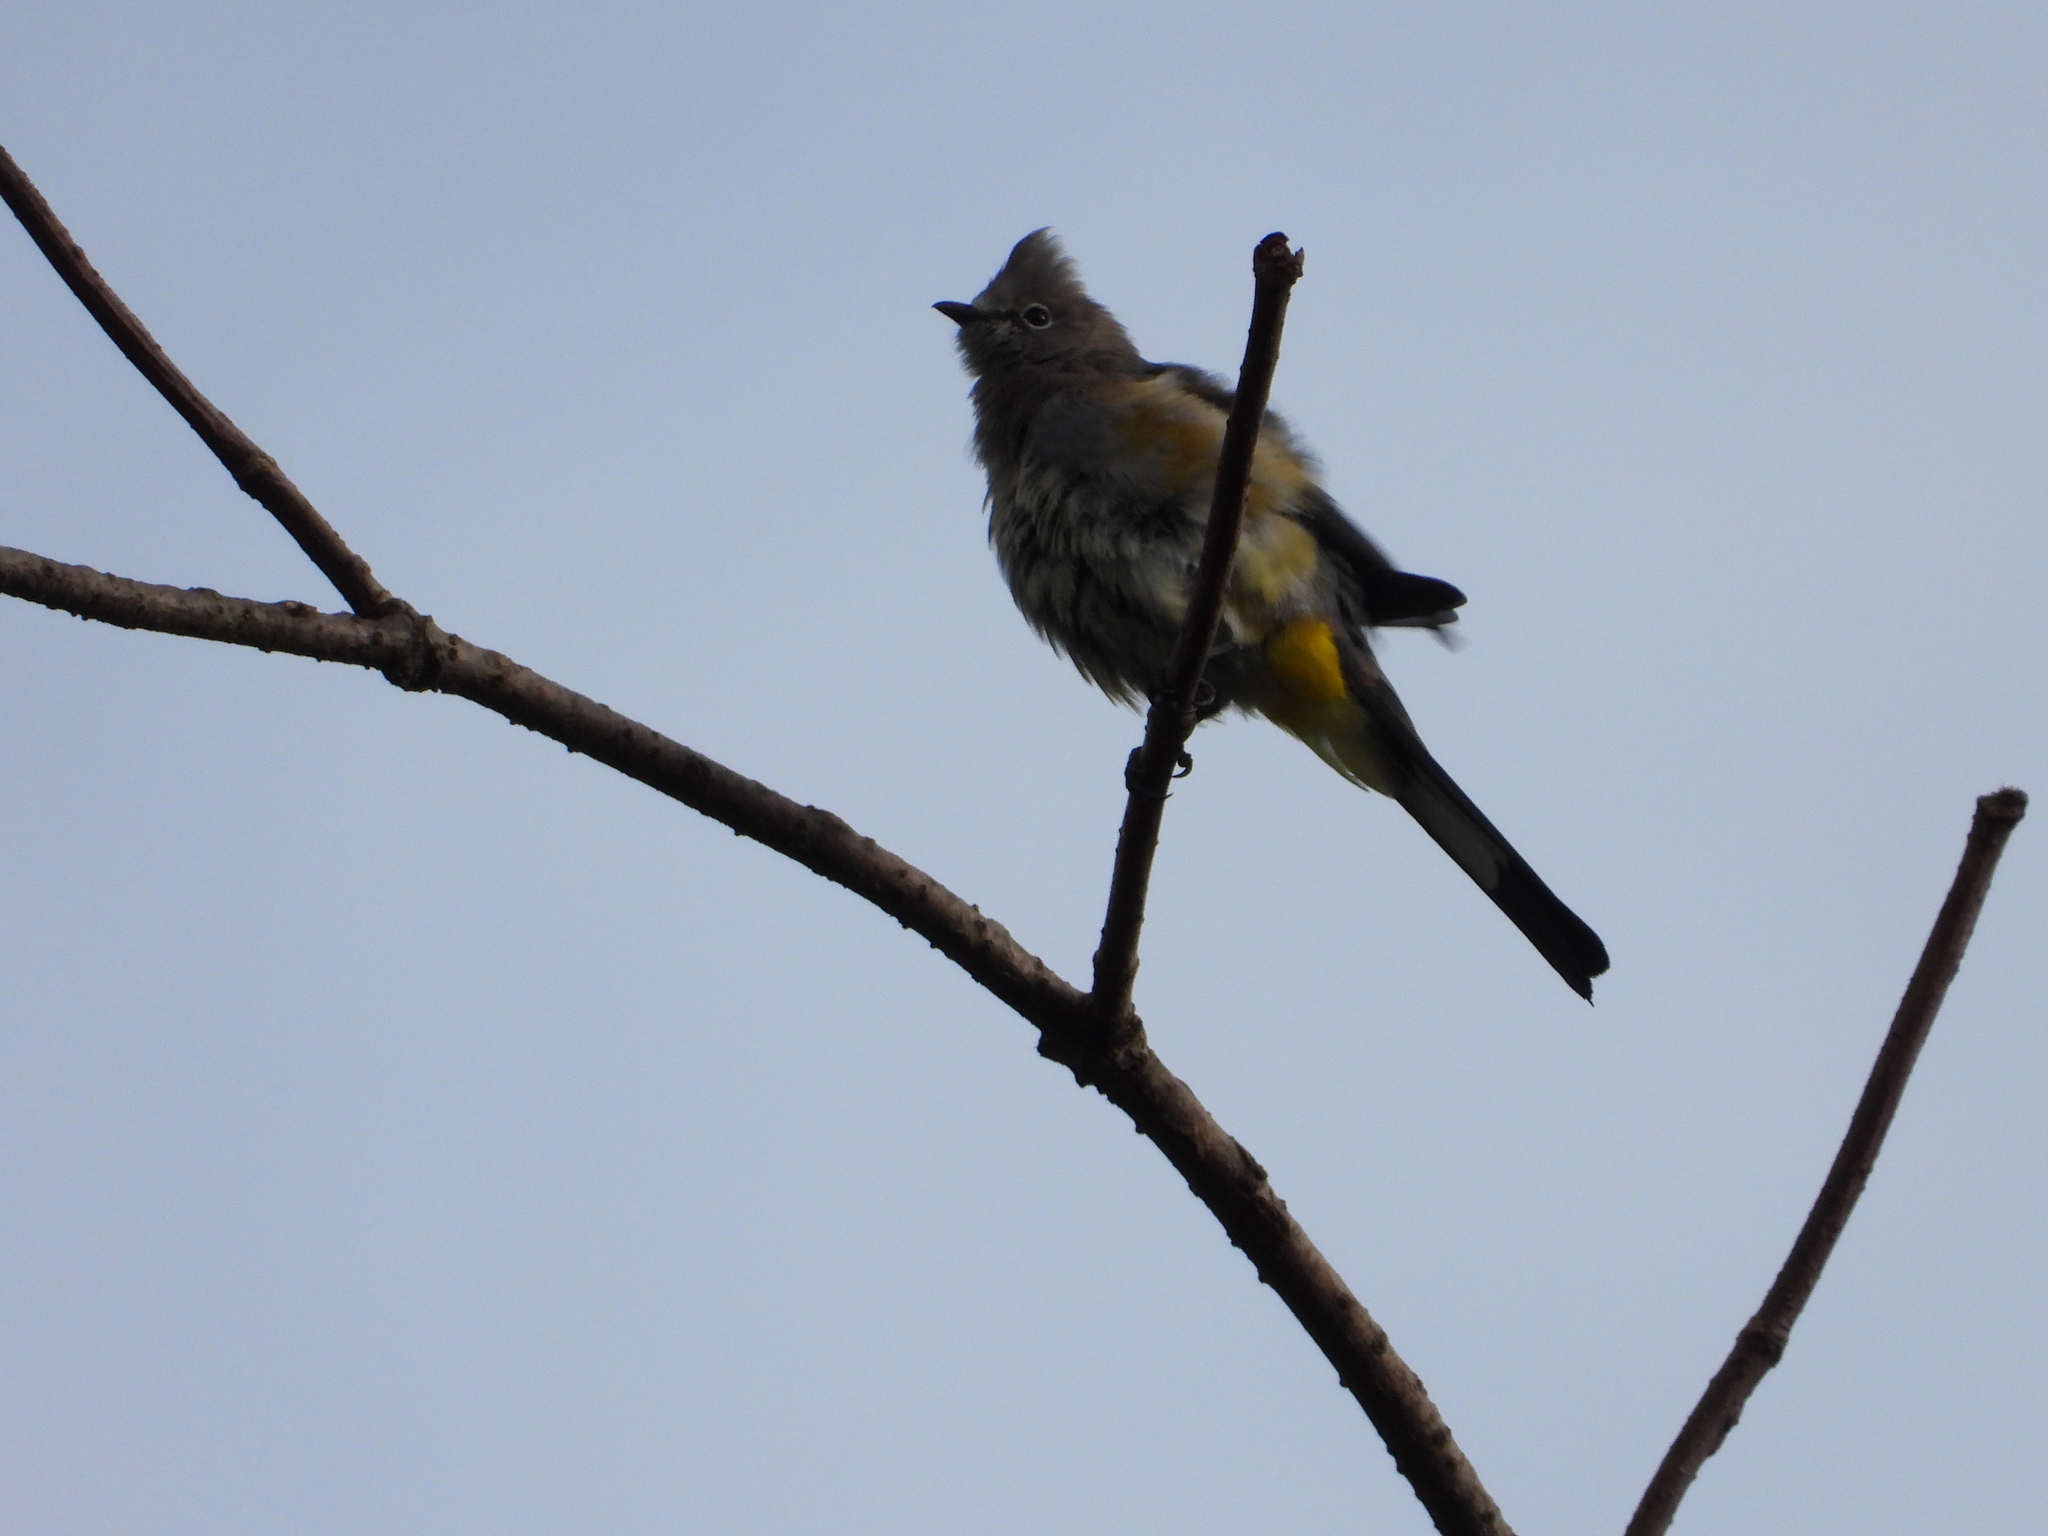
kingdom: Animalia
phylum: Chordata
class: Aves
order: Passeriformes
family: Ptilogonatidae
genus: Ptilogonys
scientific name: Ptilogonys cinereus
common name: Gray silky-flycatcher
